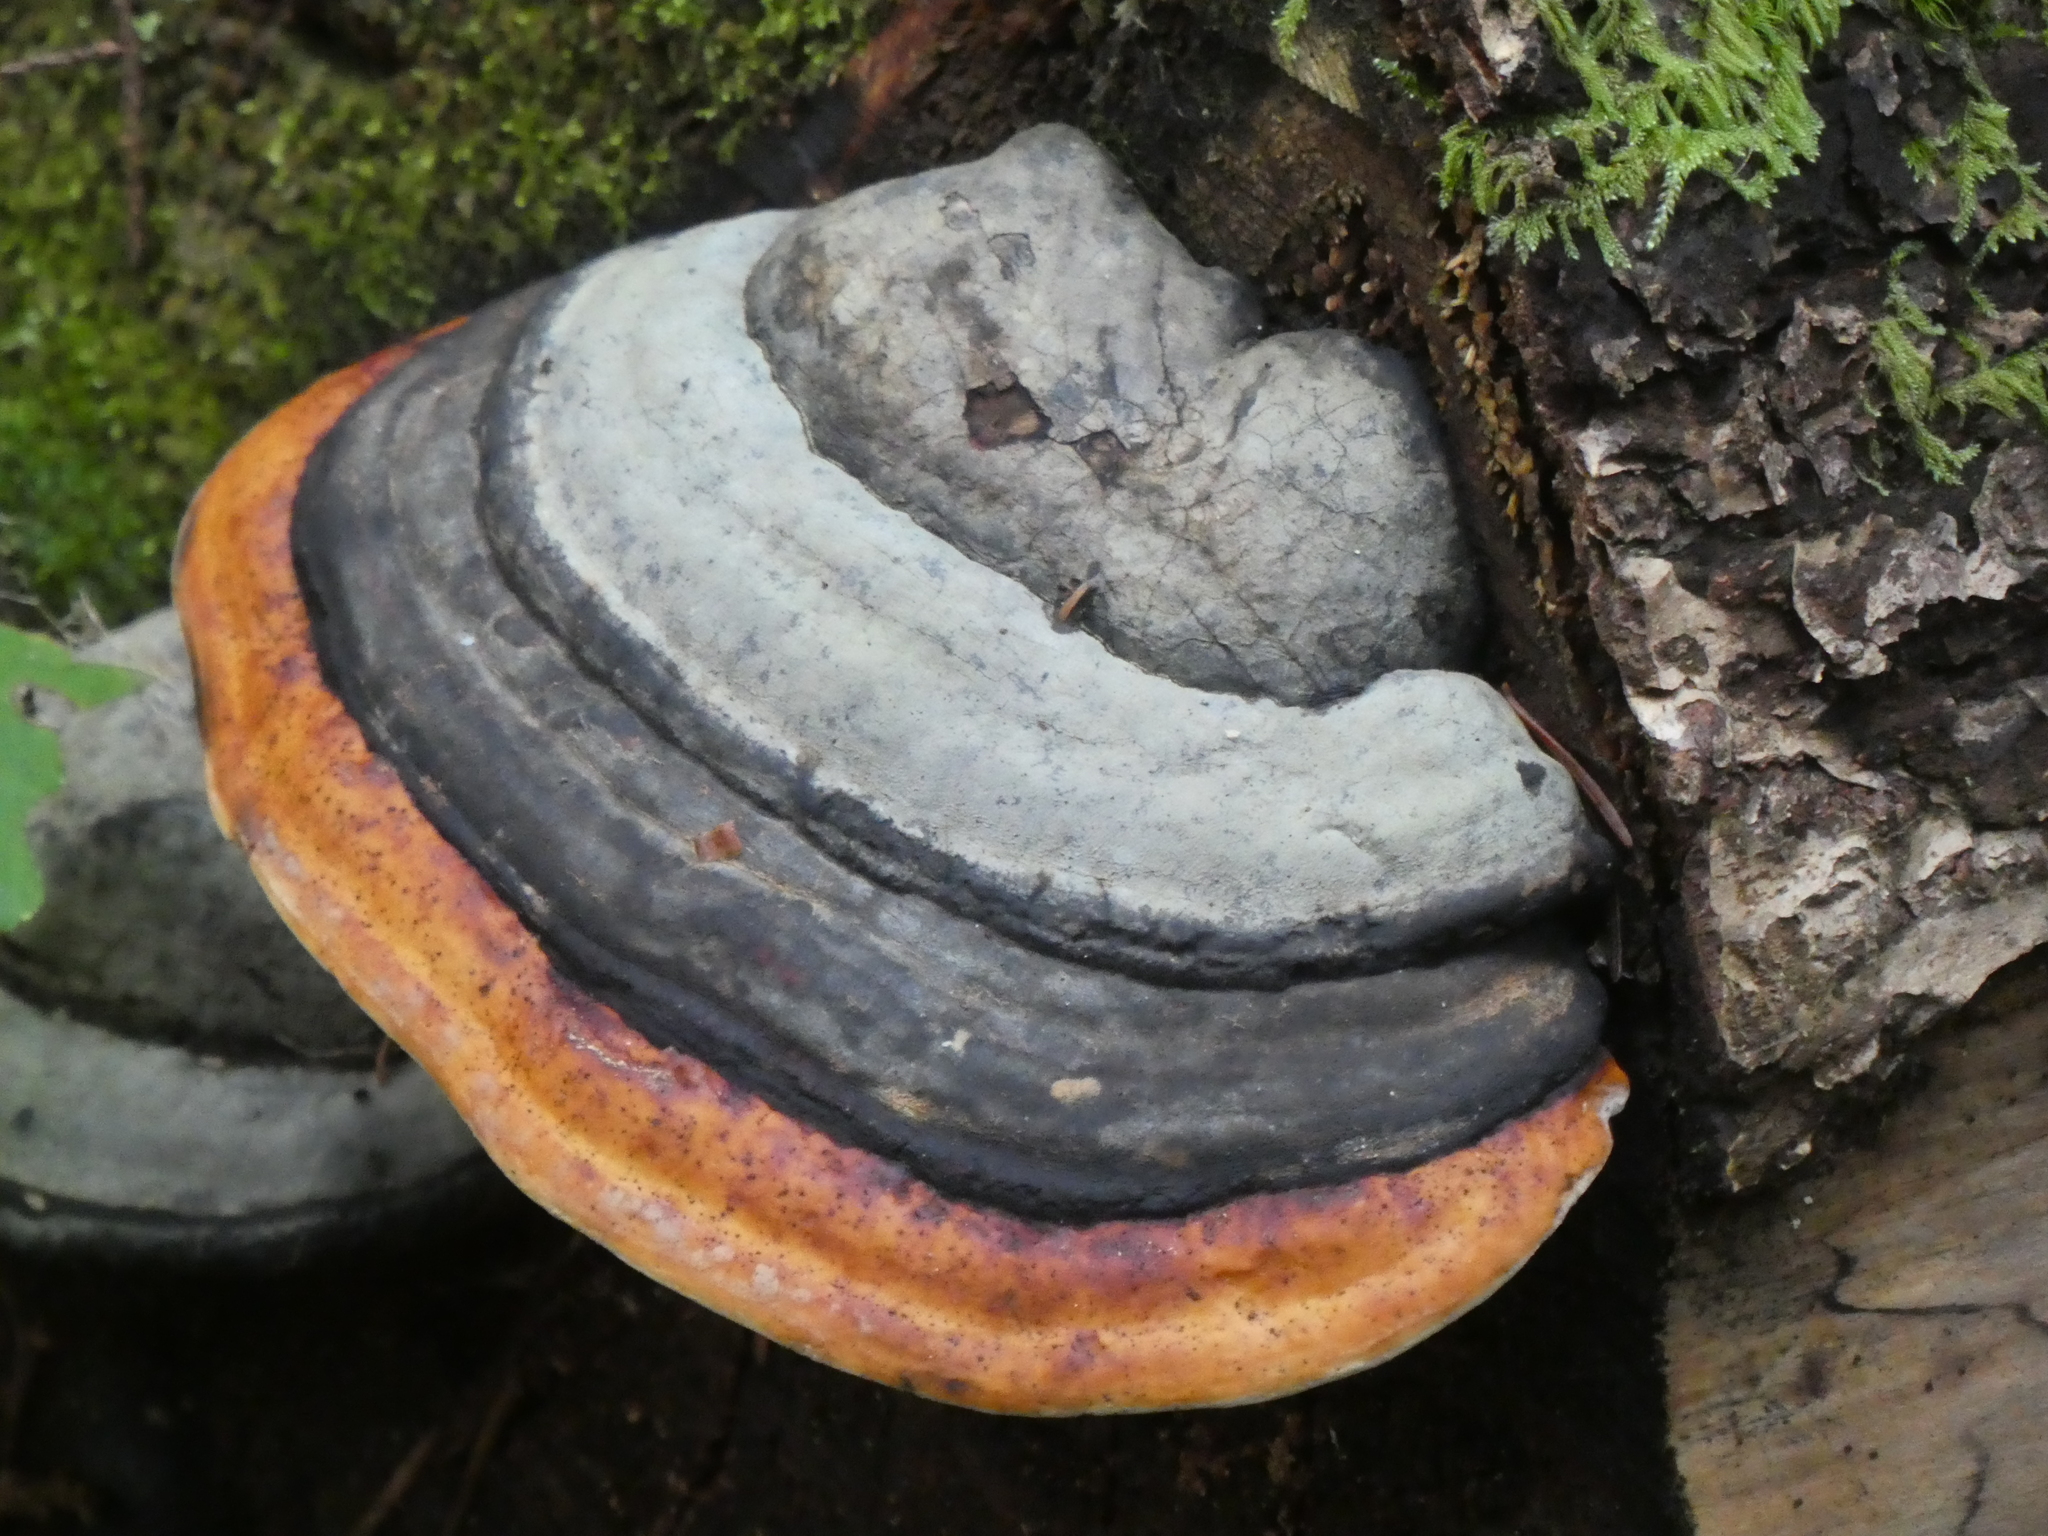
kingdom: Fungi
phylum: Basidiomycota
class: Agaricomycetes
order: Polyporales
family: Fomitopsidaceae
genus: Fomitopsis
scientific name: Fomitopsis mounceae
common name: Northern red belt
